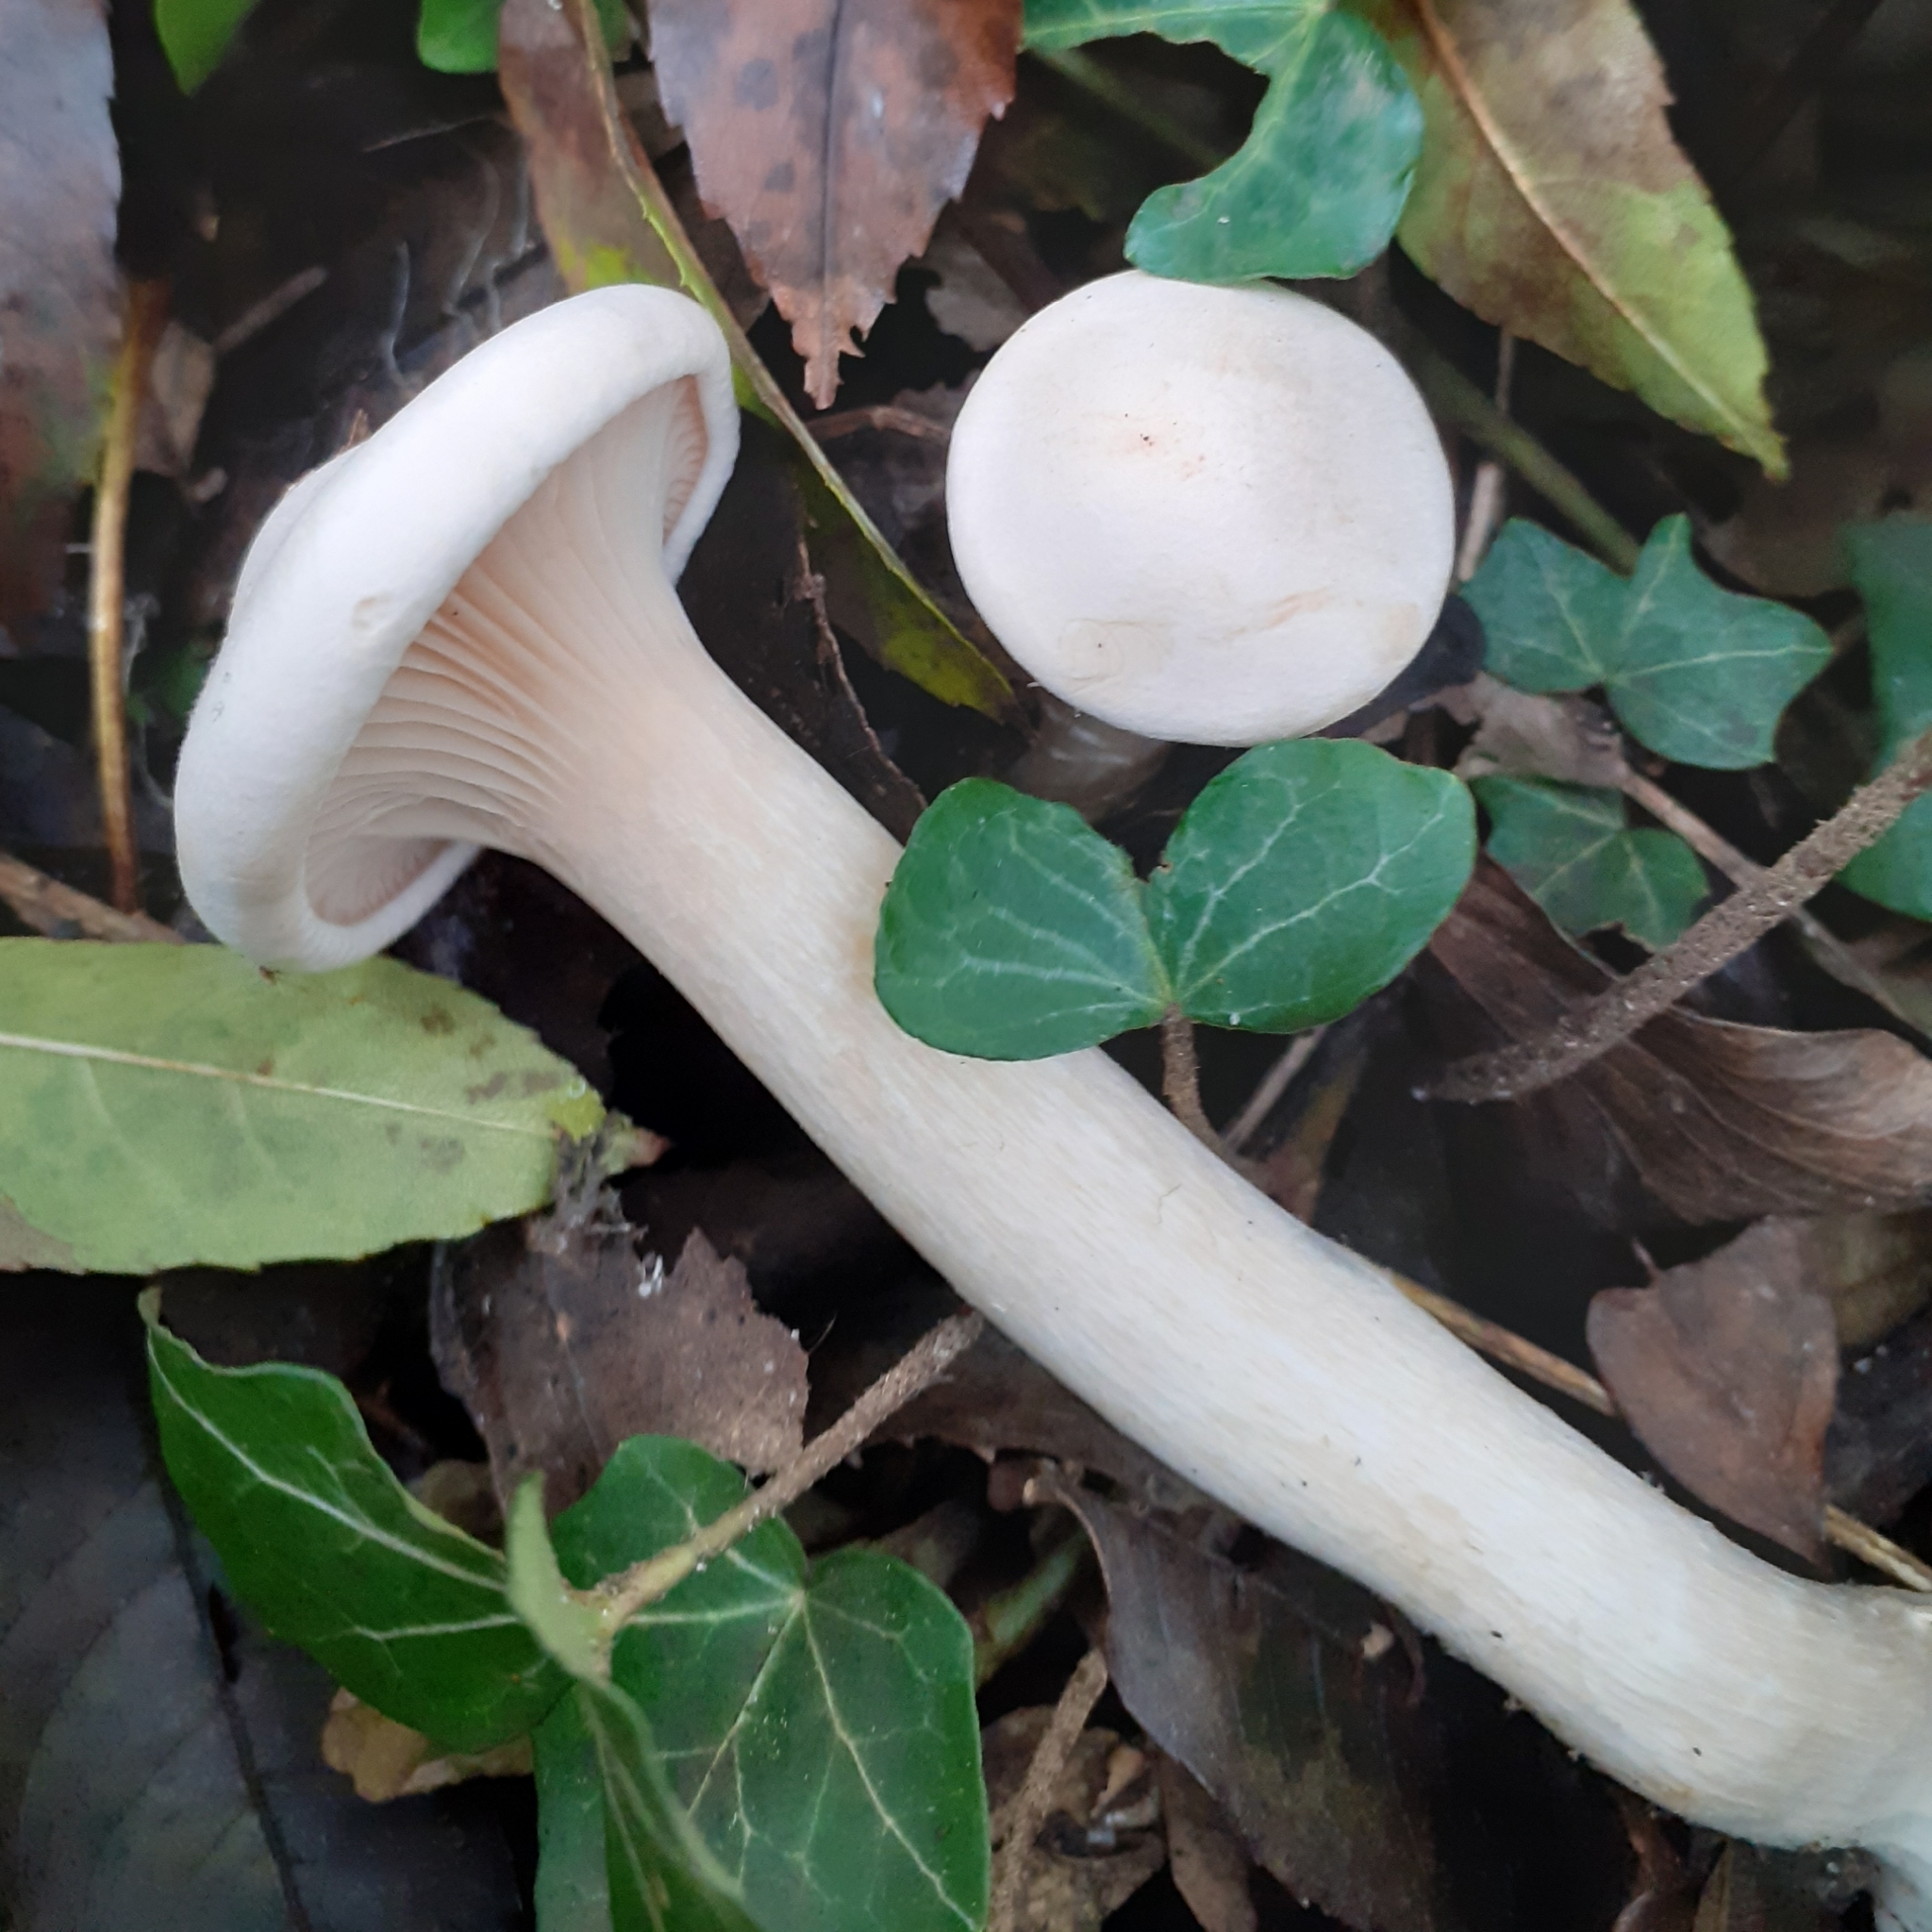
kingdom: Fungi
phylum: Basidiomycota
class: Agaricomycetes
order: Agaricales
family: Tricholomataceae
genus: Infundibulicybe
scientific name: Infundibulicybe geotropa
